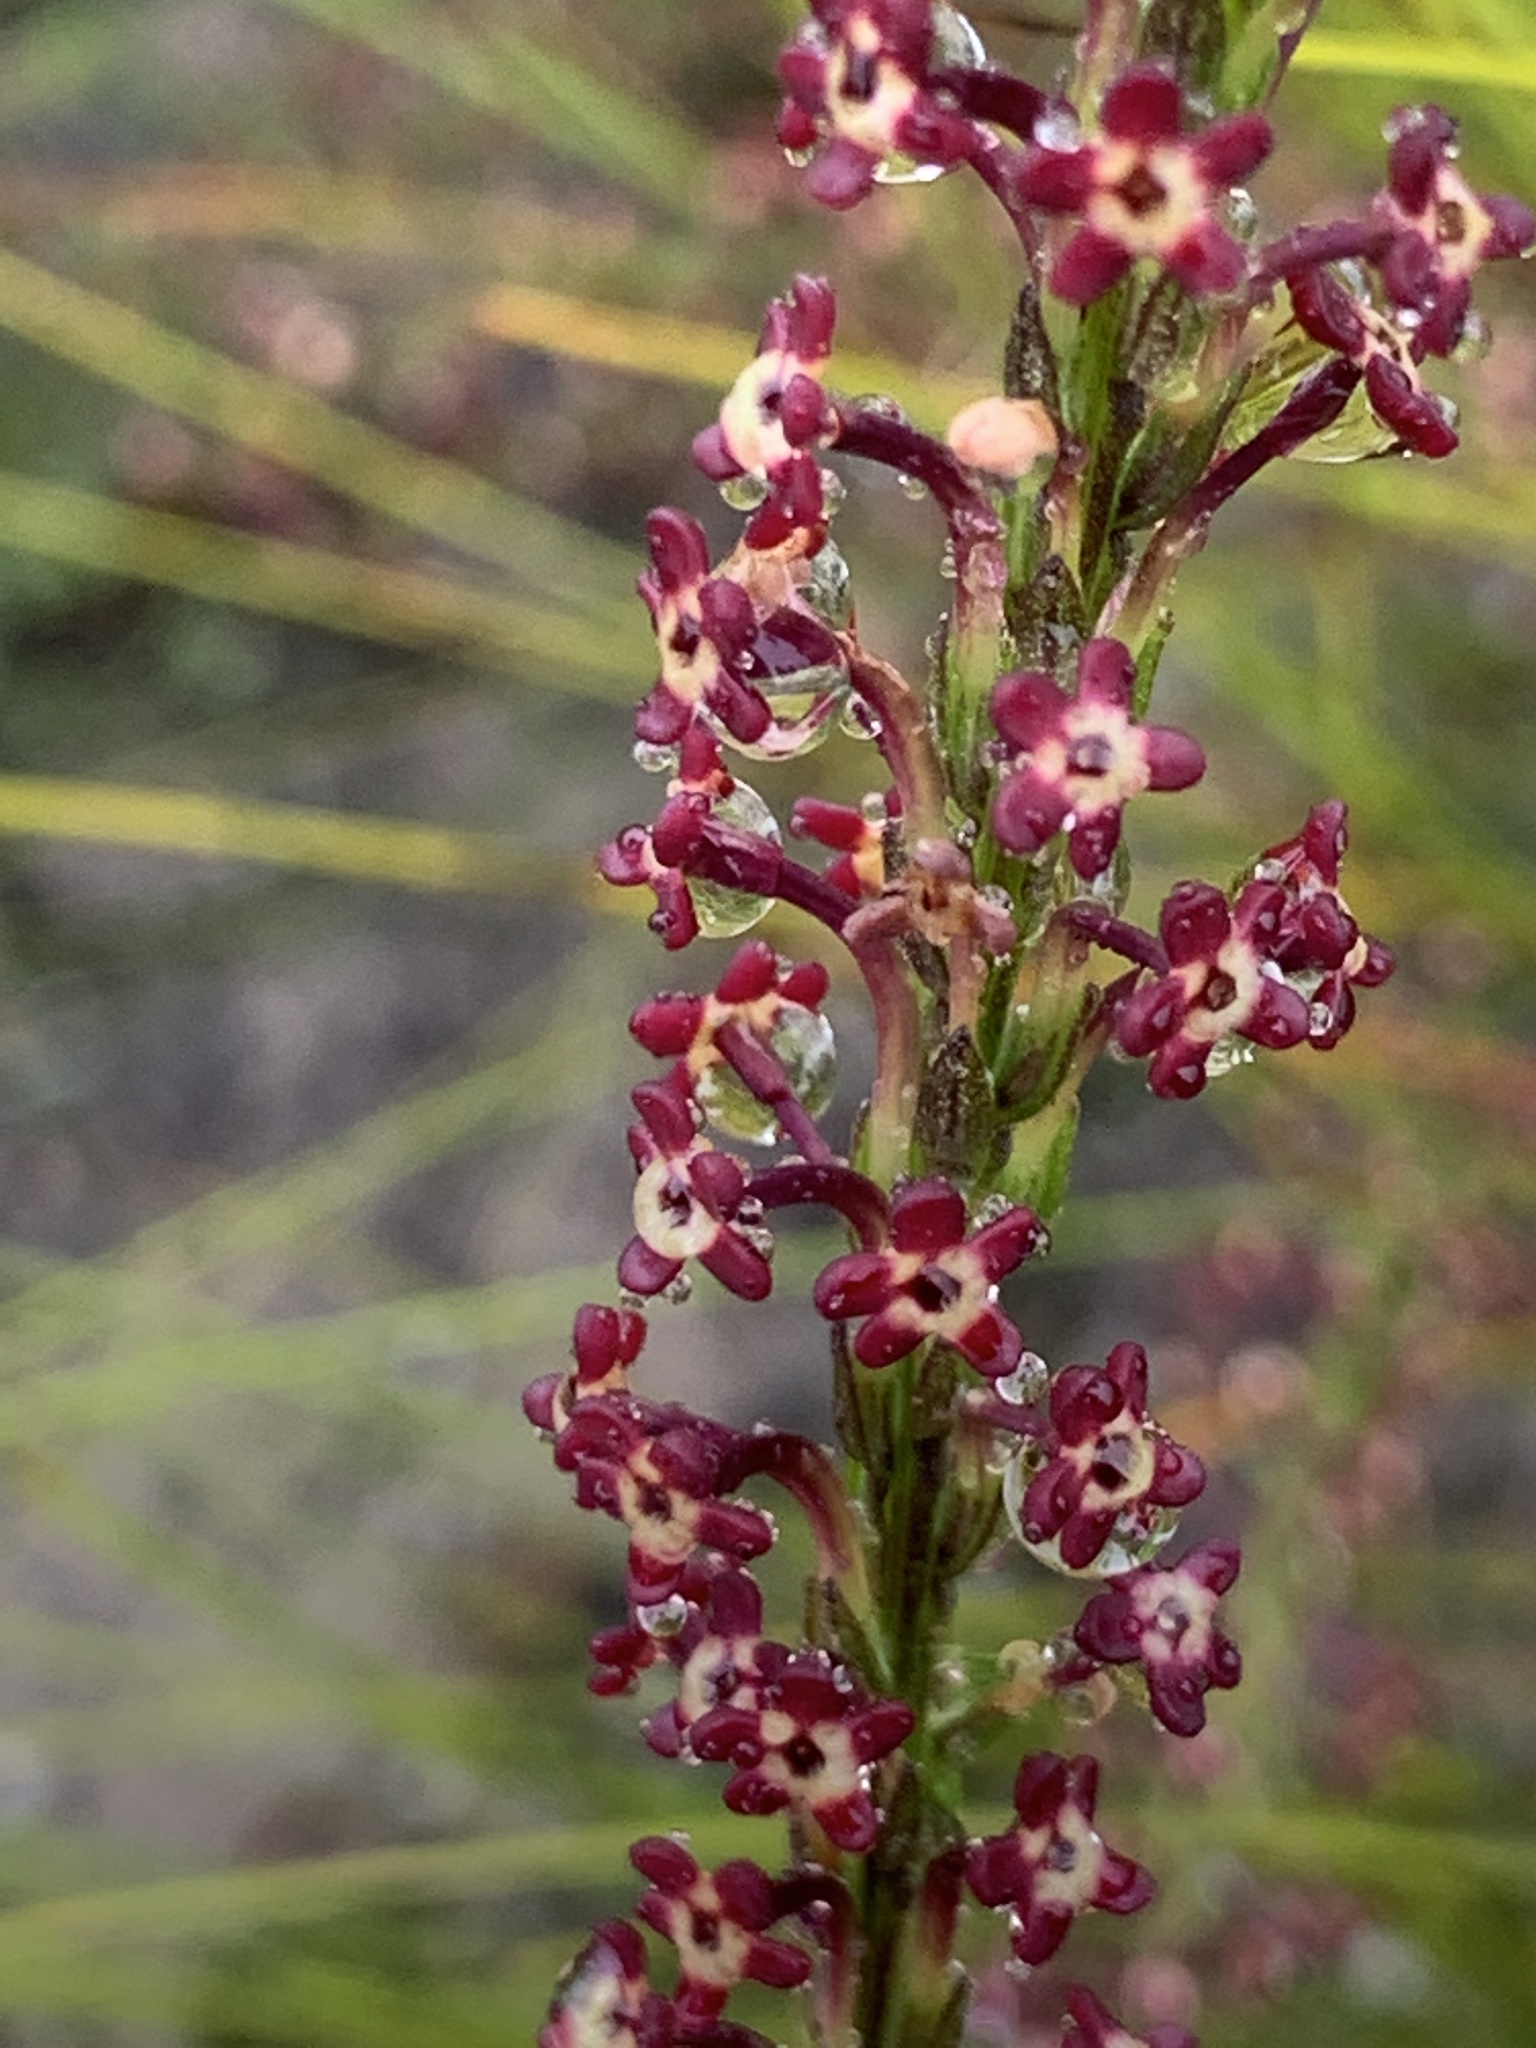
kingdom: Plantae
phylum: Tracheophyta
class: Magnoliopsida
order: Lamiales
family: Scrophulariaceae
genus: Microdon
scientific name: Microdon dubius
